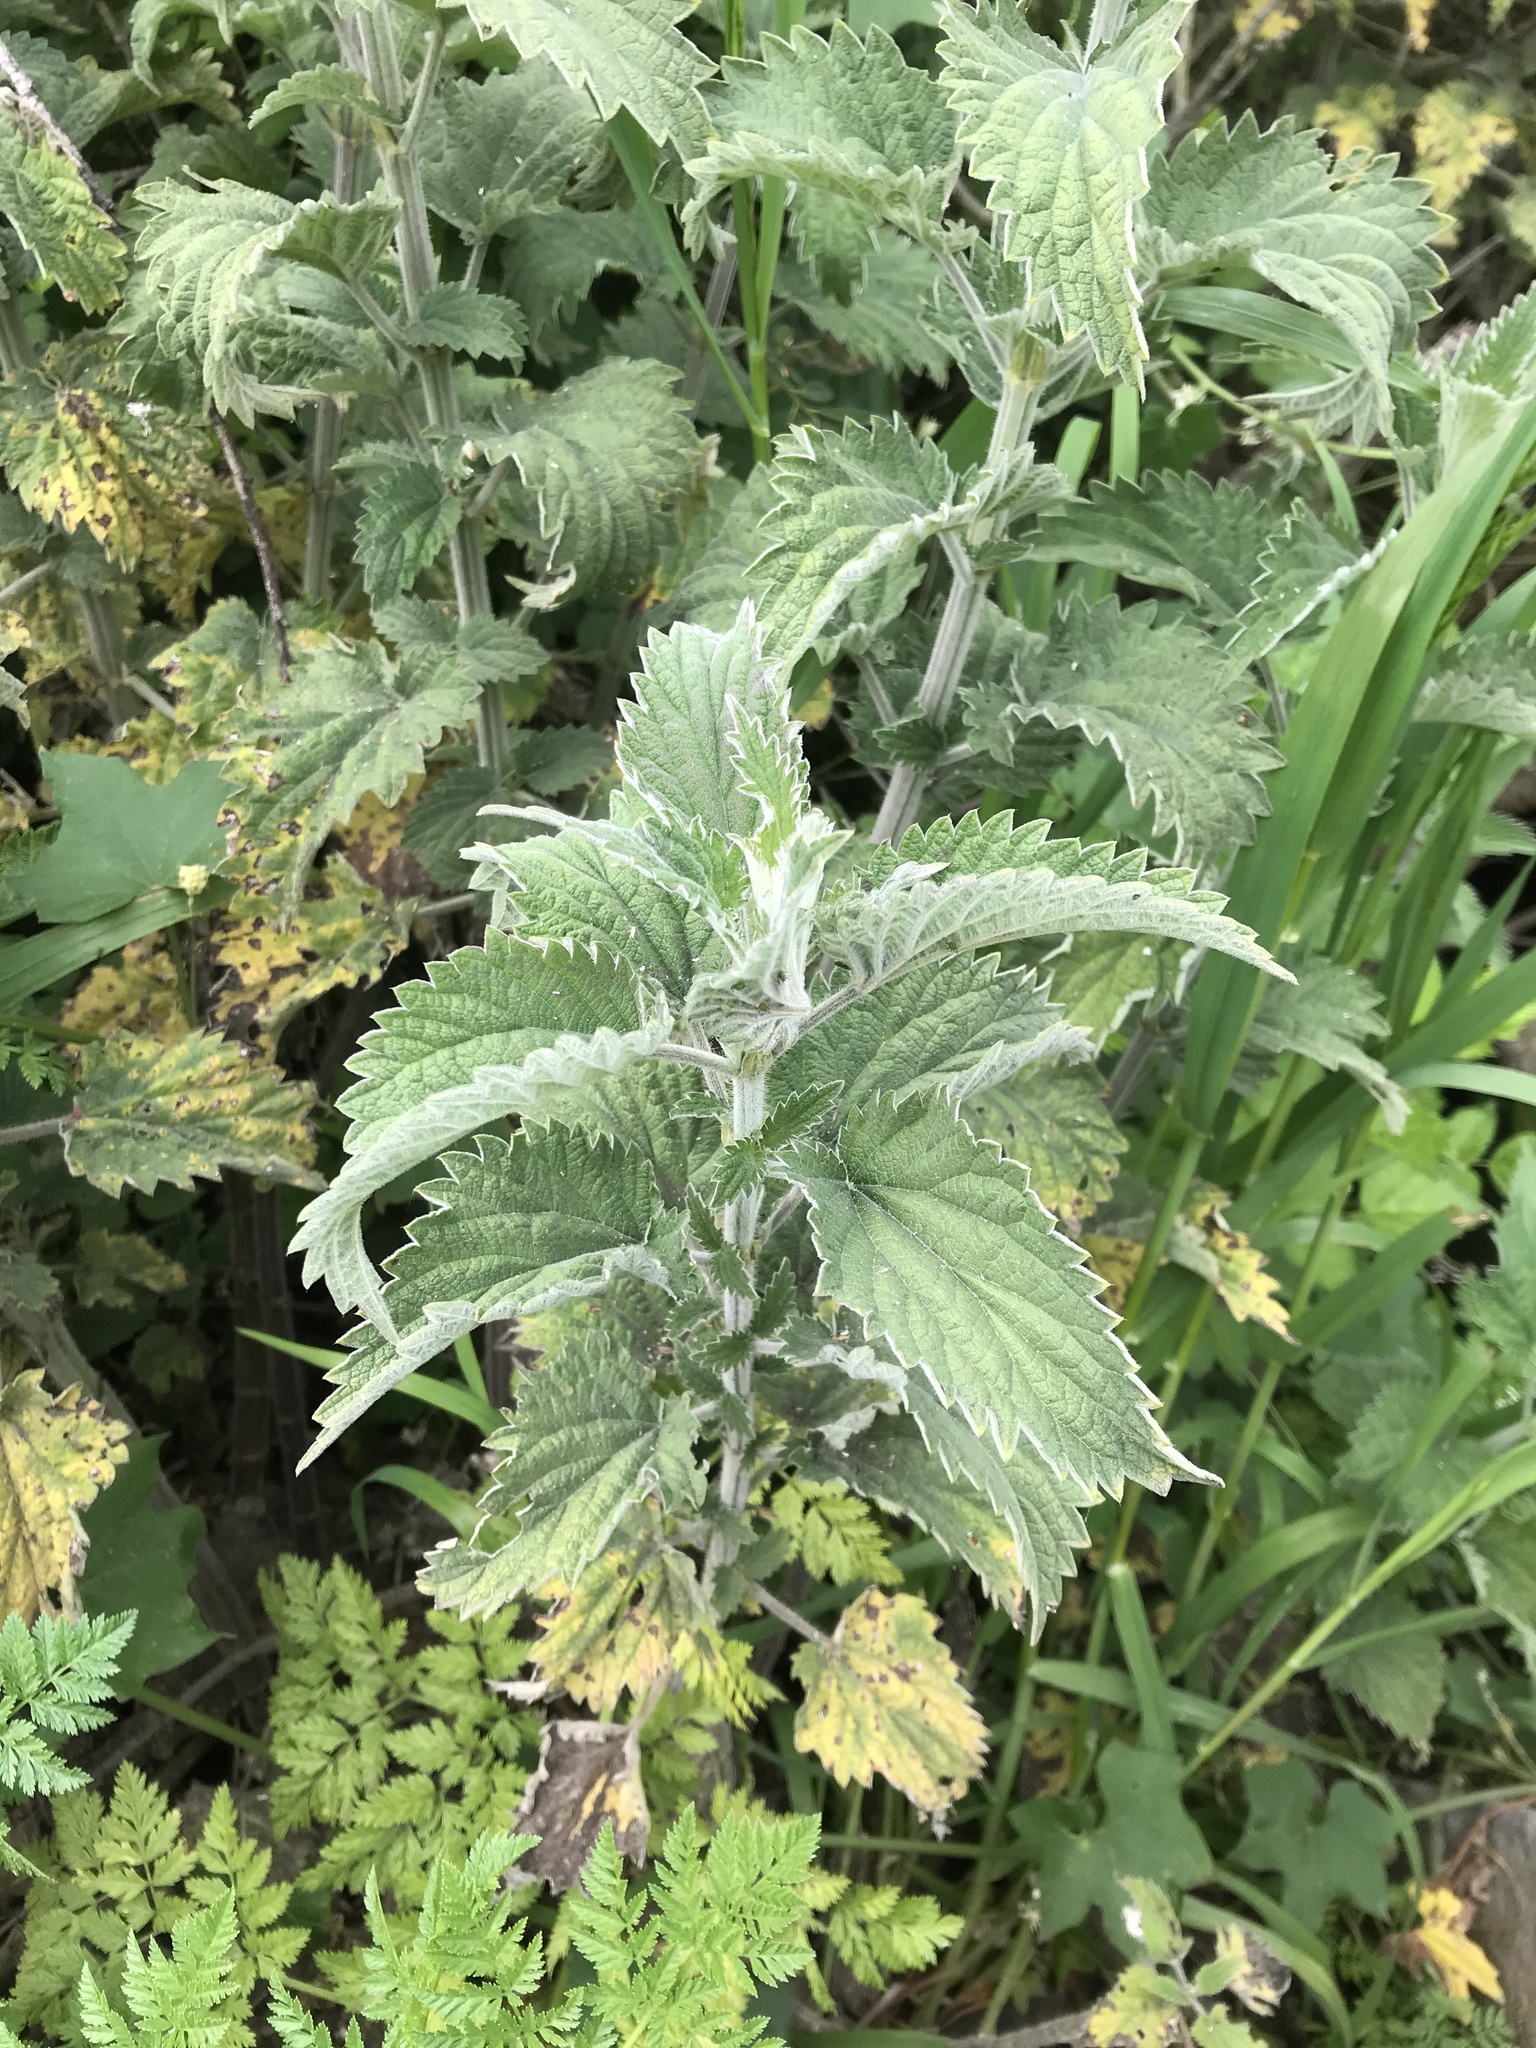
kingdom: Plantae
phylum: Tracheophyta
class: Magnoliopsida
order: Rosales
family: Urticaceae
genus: Urtica
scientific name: Urtica dioica
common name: Common nettle
